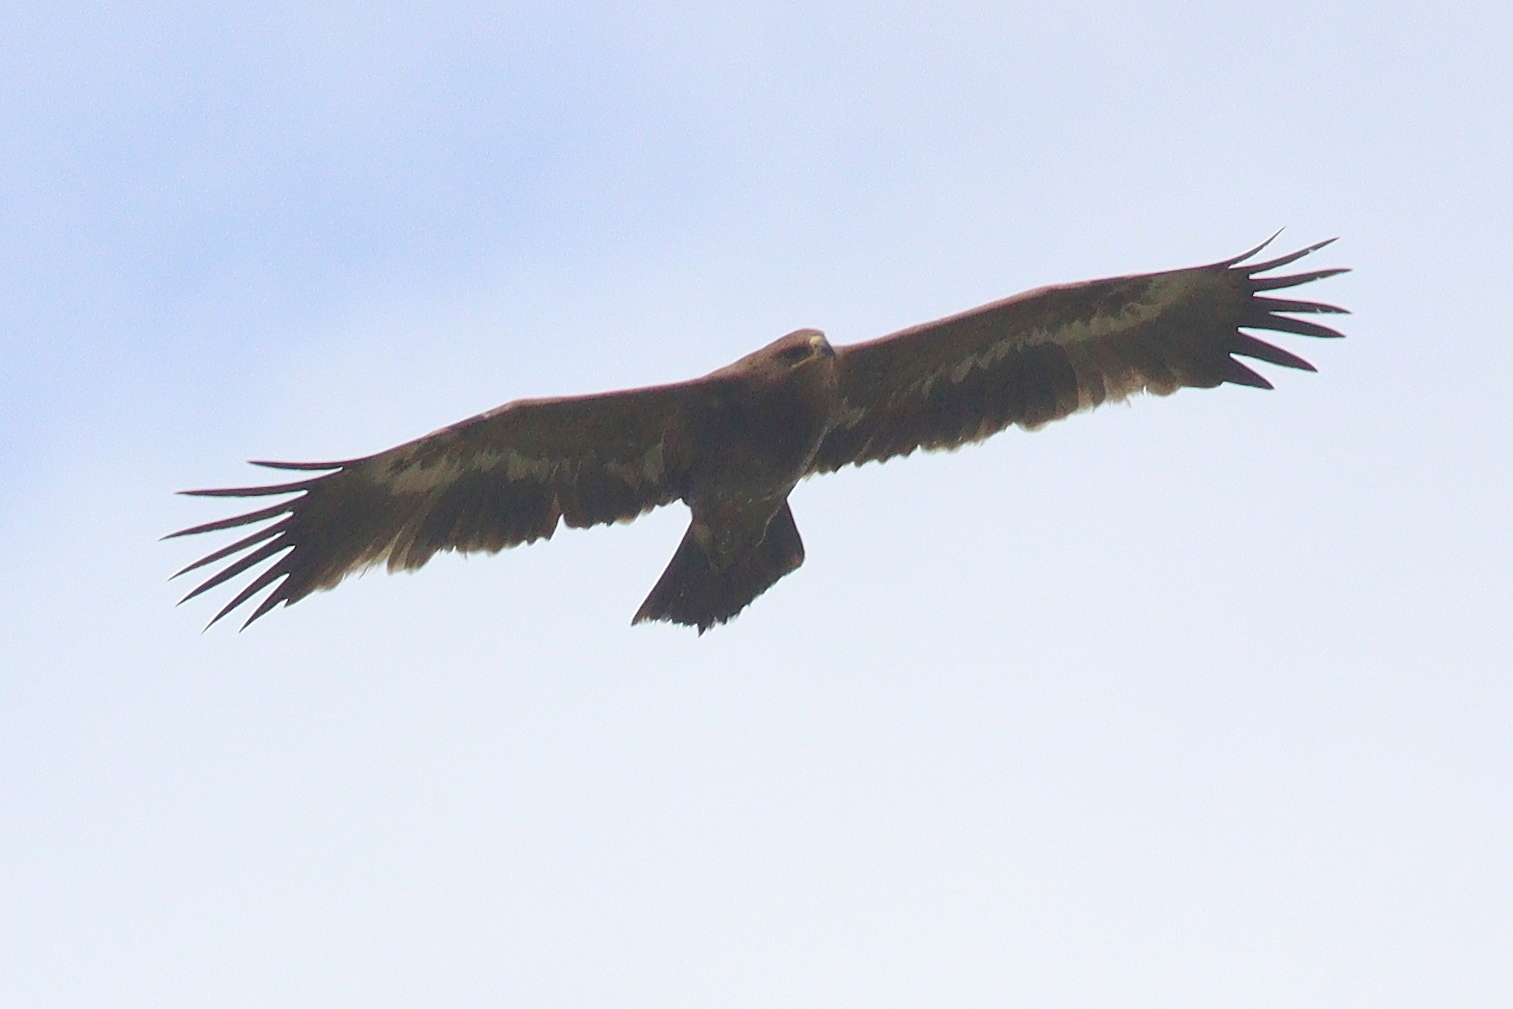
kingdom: Animalia
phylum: Chordata
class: Aves
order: Accipitriformes
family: Accipitridae
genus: Aquila
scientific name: Aquila nipalensis
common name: Steppe eagle
